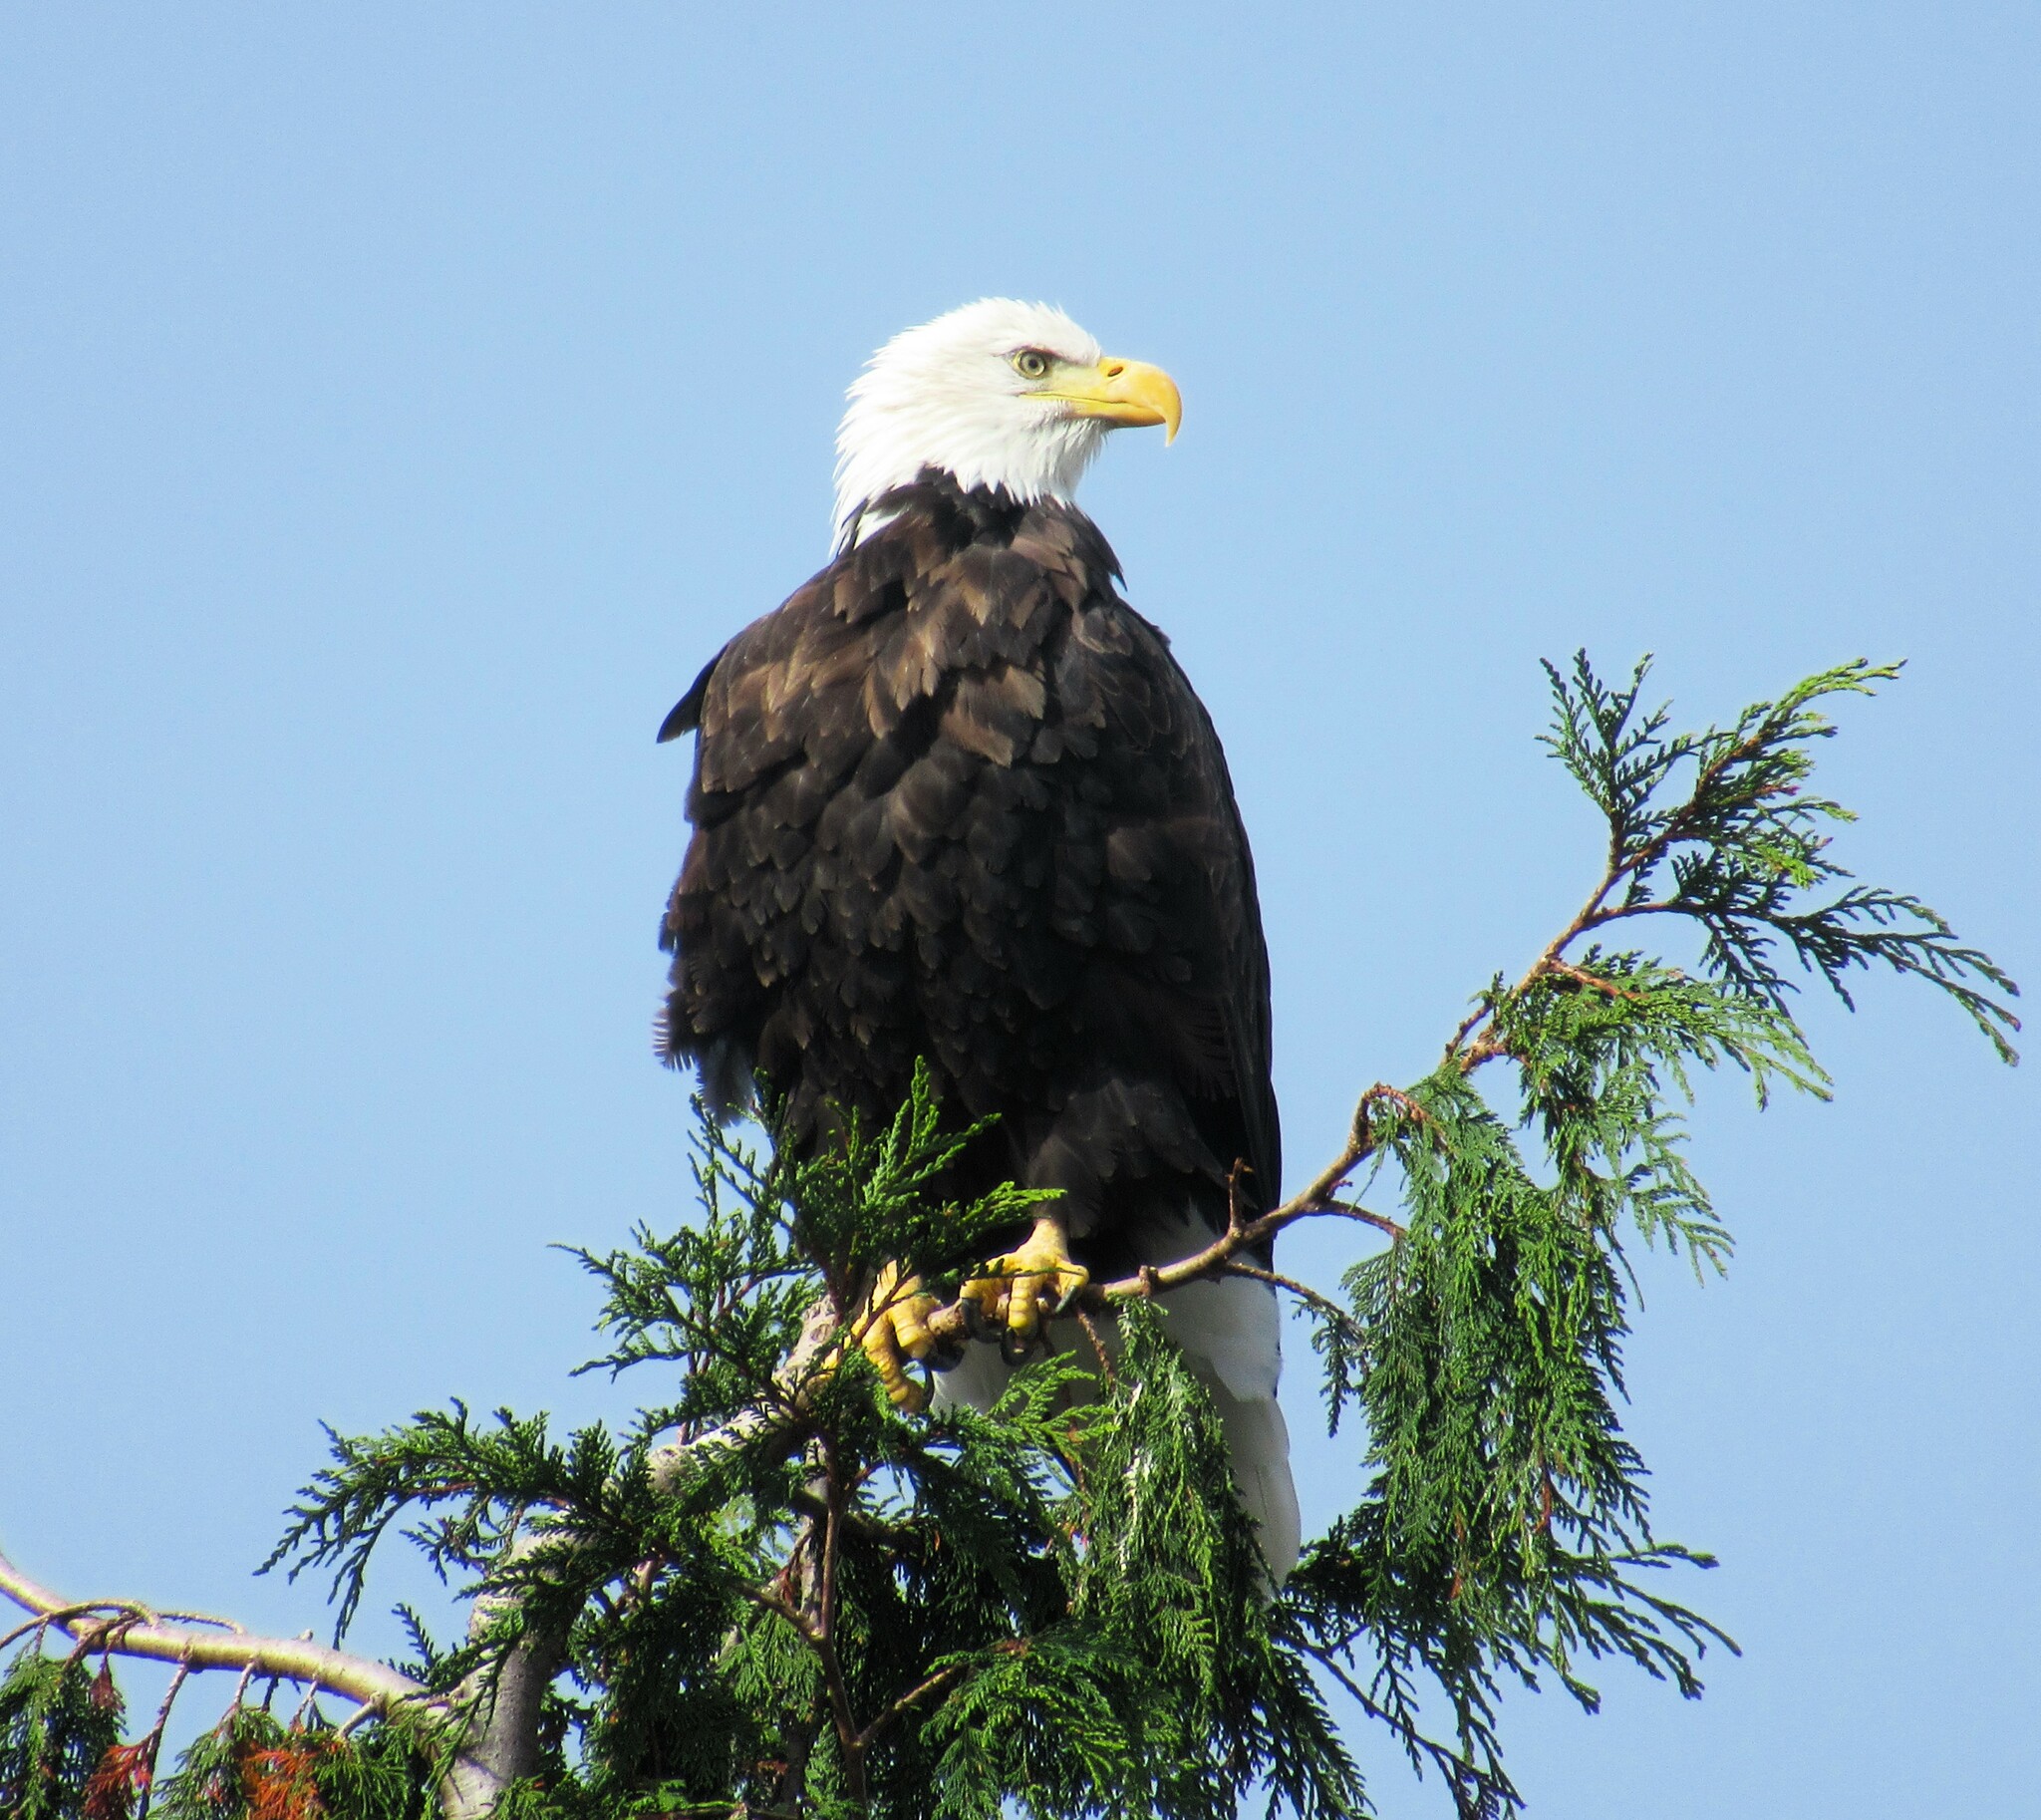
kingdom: Animalia
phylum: Chordata
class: Aves
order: Accipitriformes
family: Accipitridae
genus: Haliaeetus
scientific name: Haliaeetus leucocephalus
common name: Bald eagle
